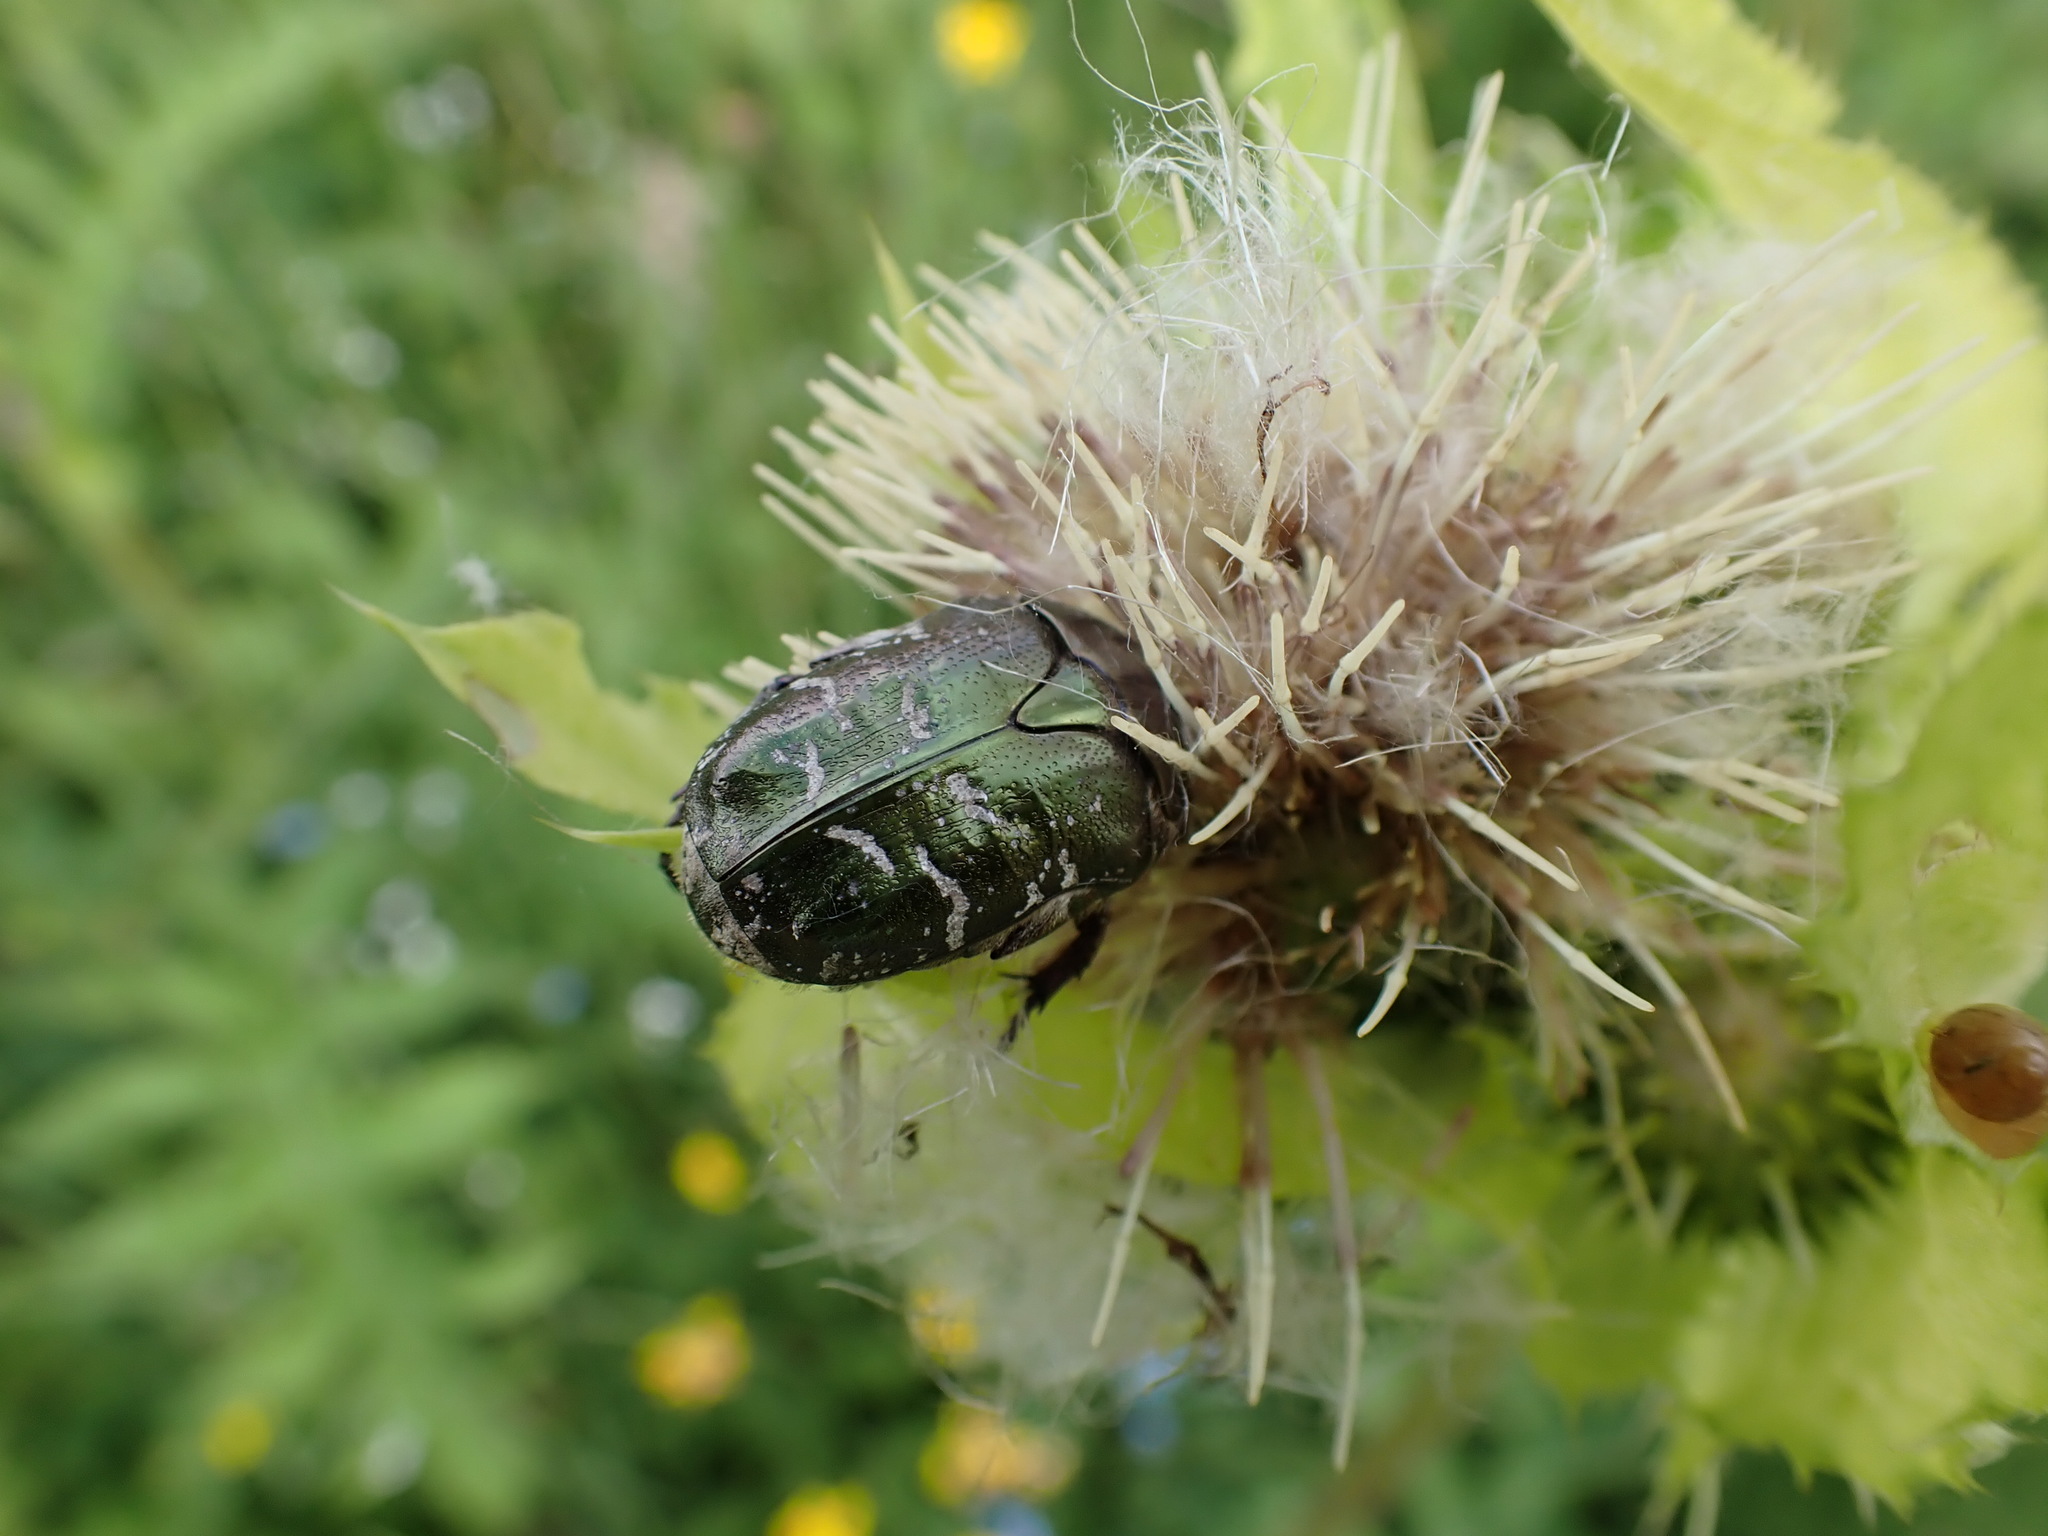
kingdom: Animalia
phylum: Arthropoda
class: Insecta
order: Coleoptera
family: Scarabaeidae
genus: Protaetia
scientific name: Protaetia cuprea
